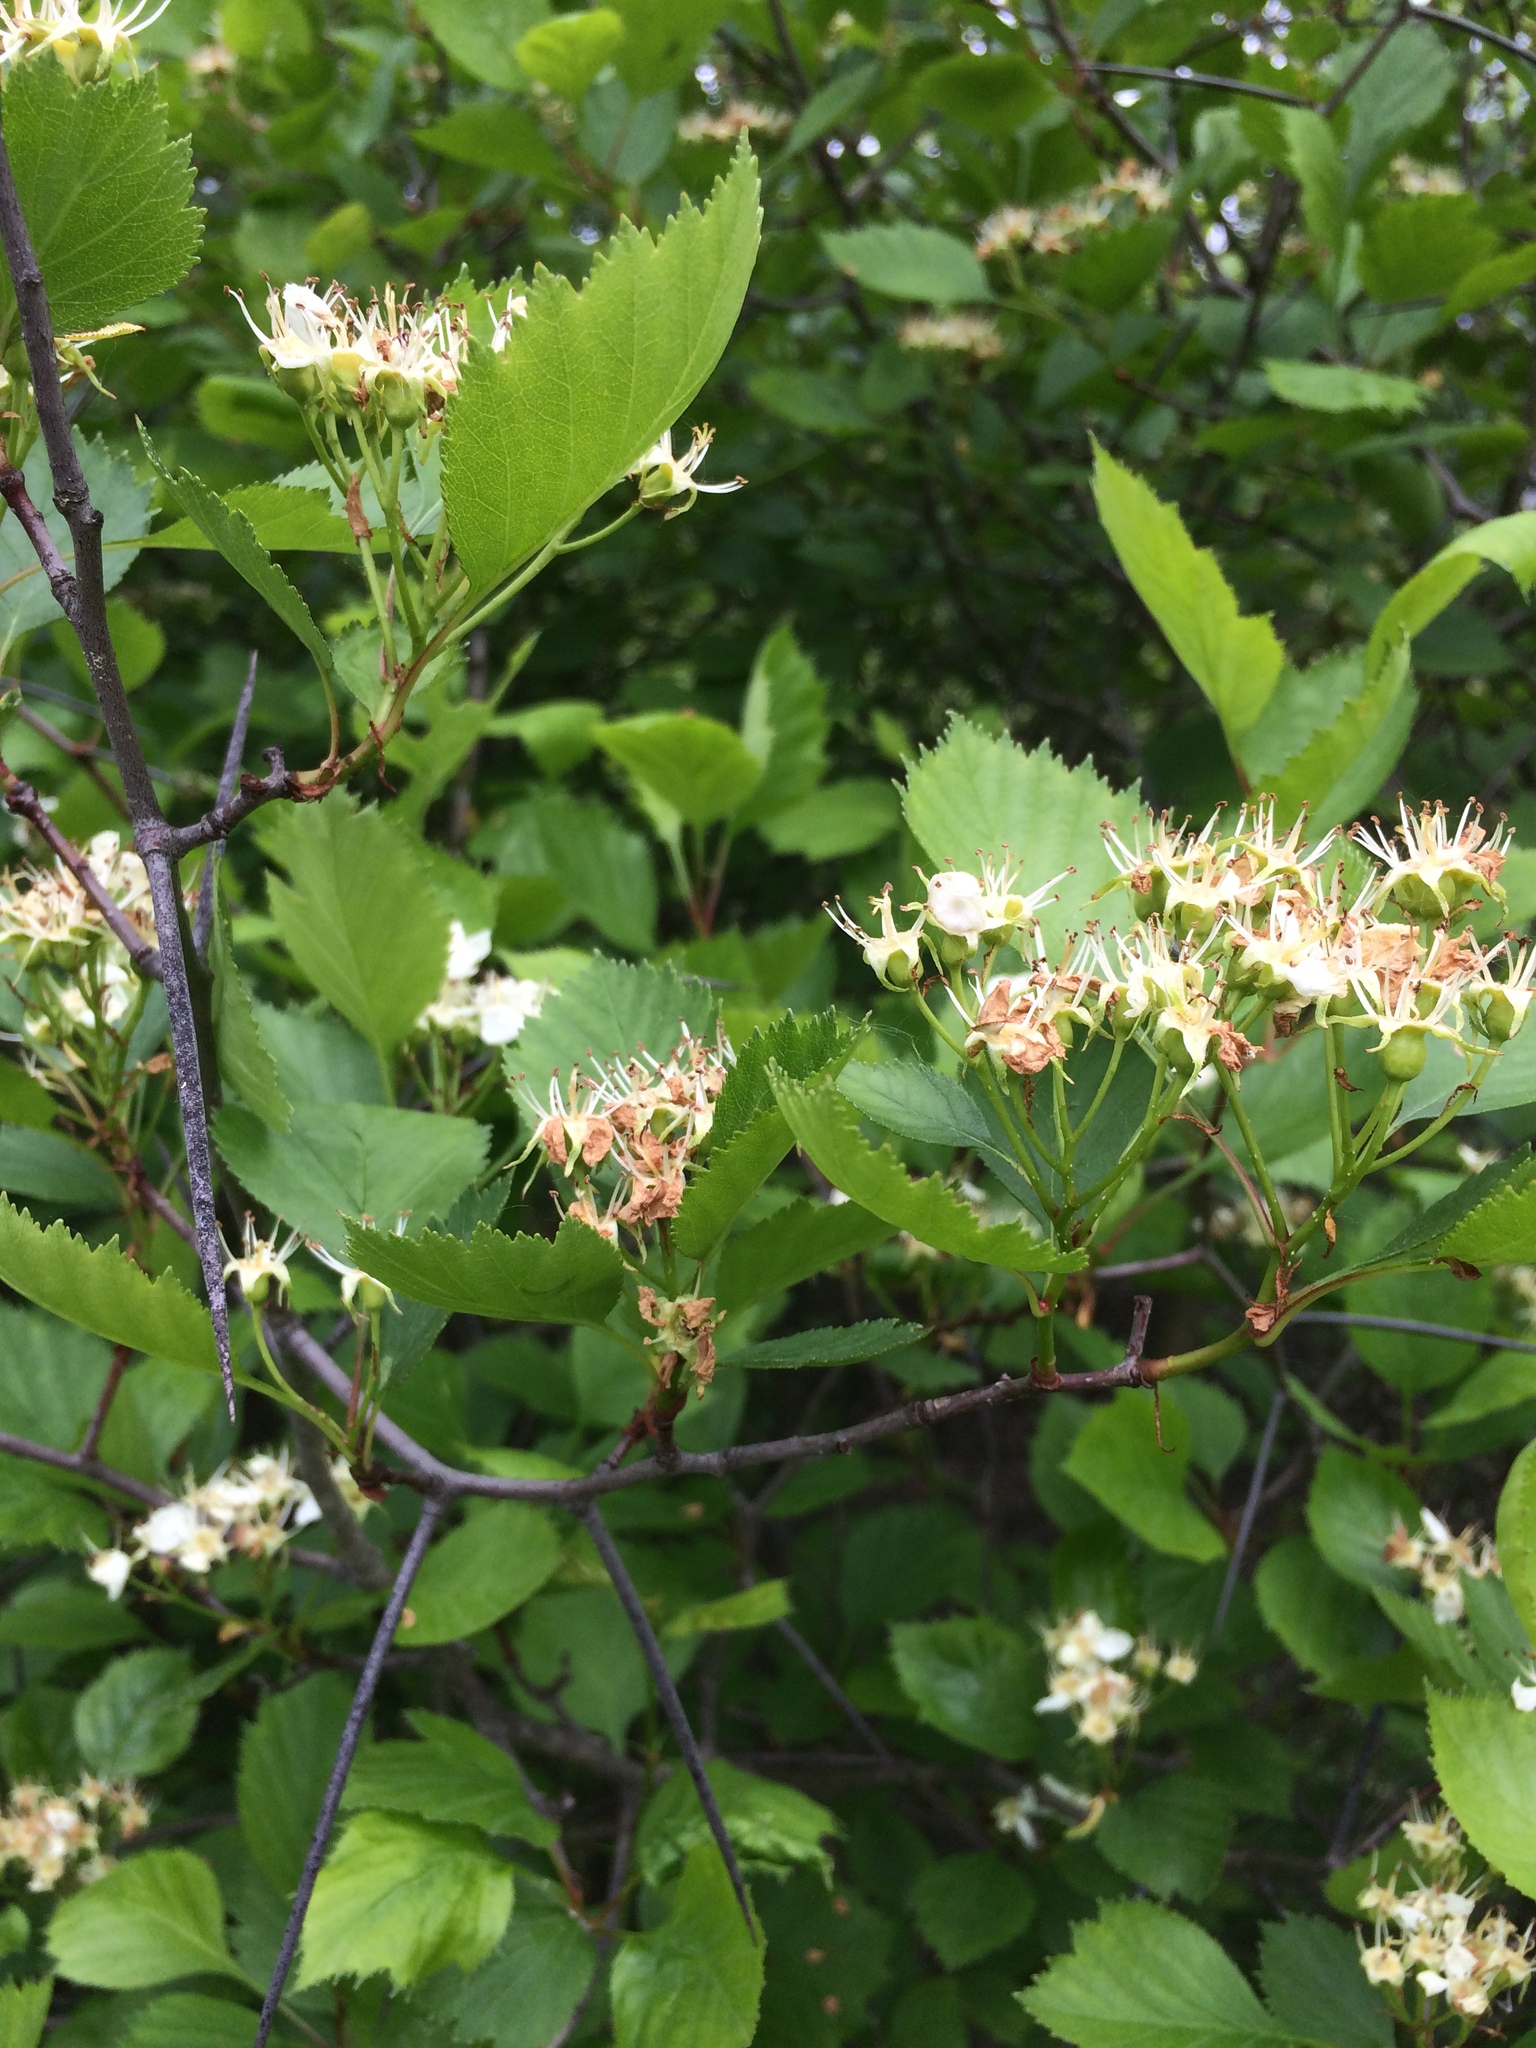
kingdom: Plantae
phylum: Tracheophyta
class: Magnoliopsida
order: Rosales
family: Rosaceae
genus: Crataegus
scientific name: Crataegus chrysocarpa
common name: Fire-berry hawthorn
